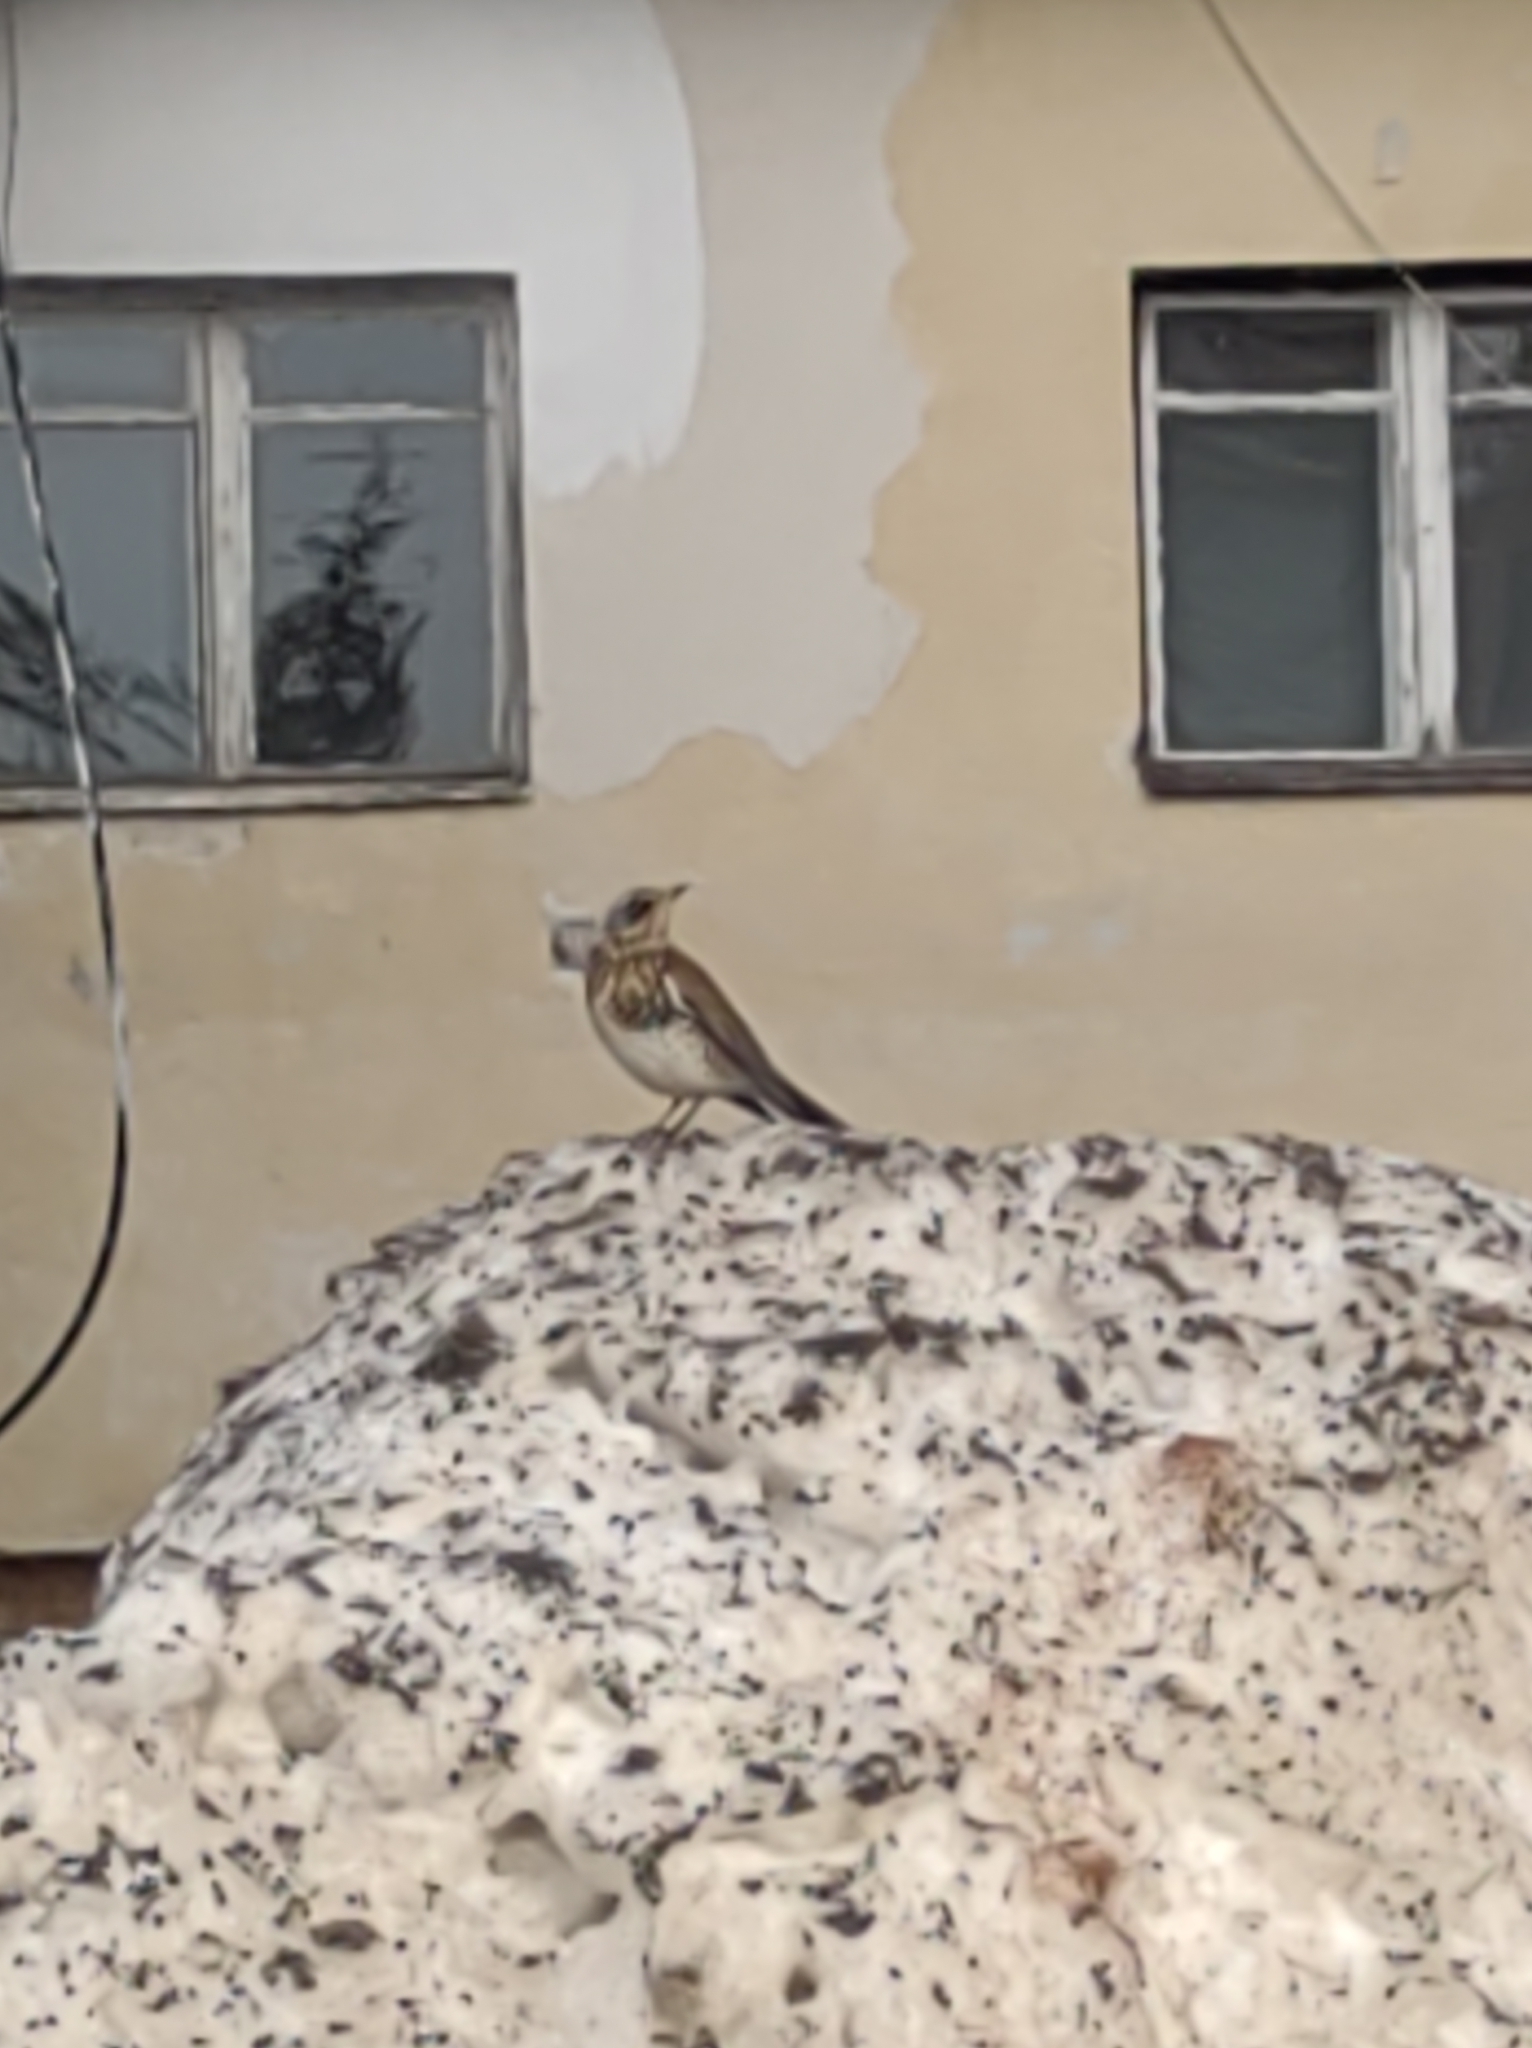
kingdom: Animalia
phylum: Chordata
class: Aves
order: Passeriformes
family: Turdidae
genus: Turdus
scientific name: Turdus pilaris
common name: Fieldfare
